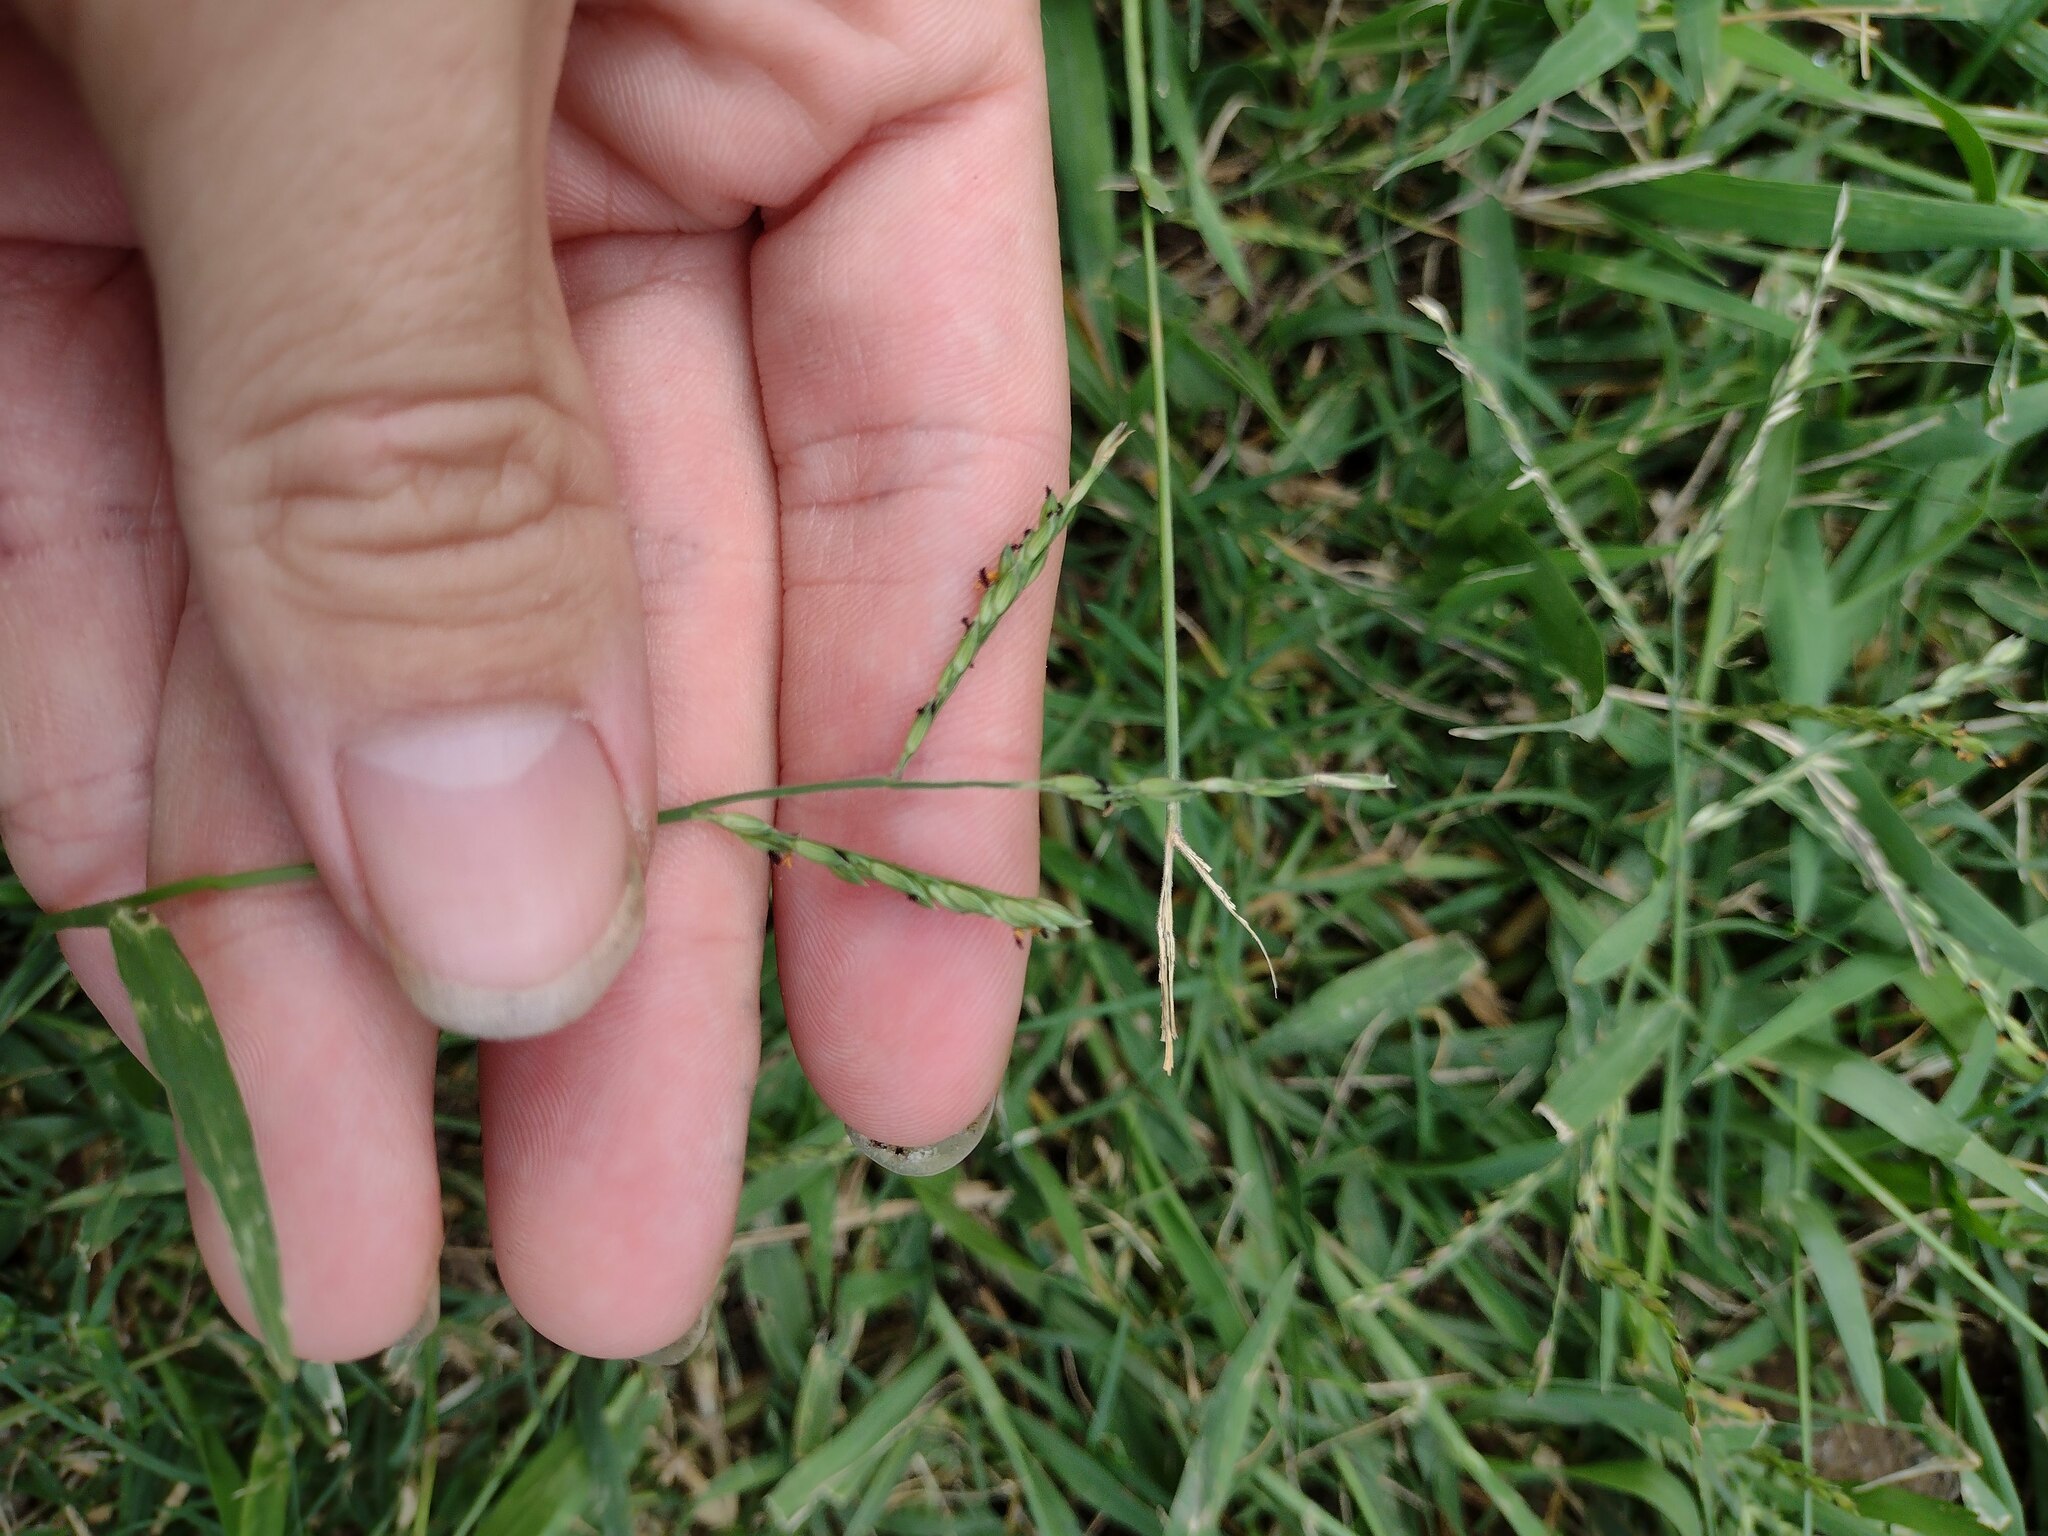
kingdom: Plantae
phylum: Tracheophyta
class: Liliopsida
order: Poales
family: Poaceae
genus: Urochloa
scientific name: Urochloa glumaris
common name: Thurston grass
